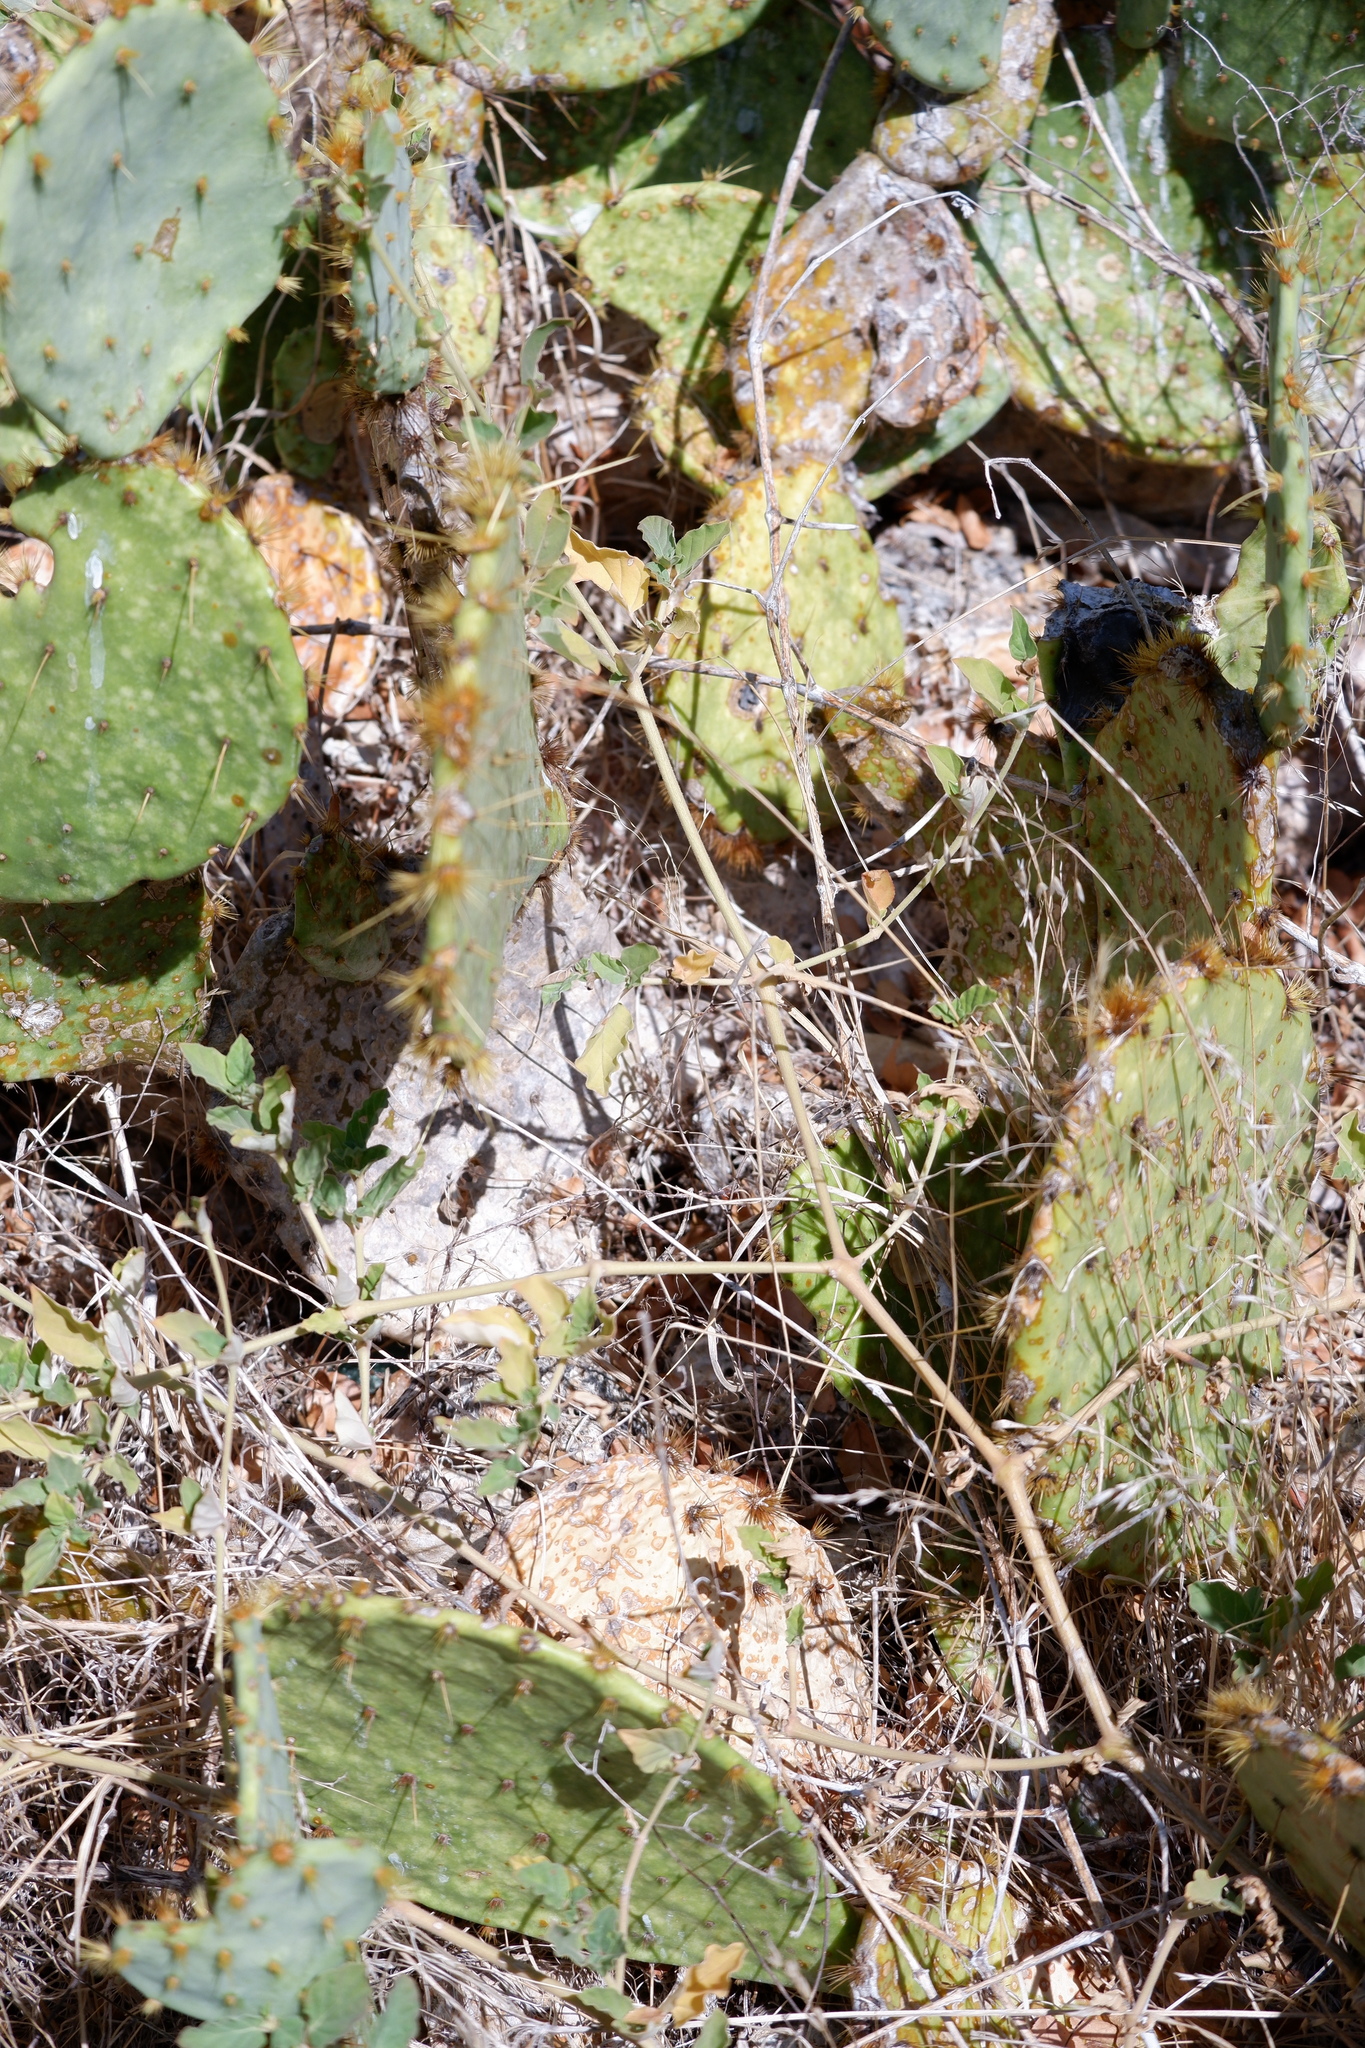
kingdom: Plantae
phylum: Tracheophyta
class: Magnoliopsida
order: Caryophyllales
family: Nyctaginaceae
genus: Boerhavia
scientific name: Boerhavia coccinea
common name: Scarlet spiderling
